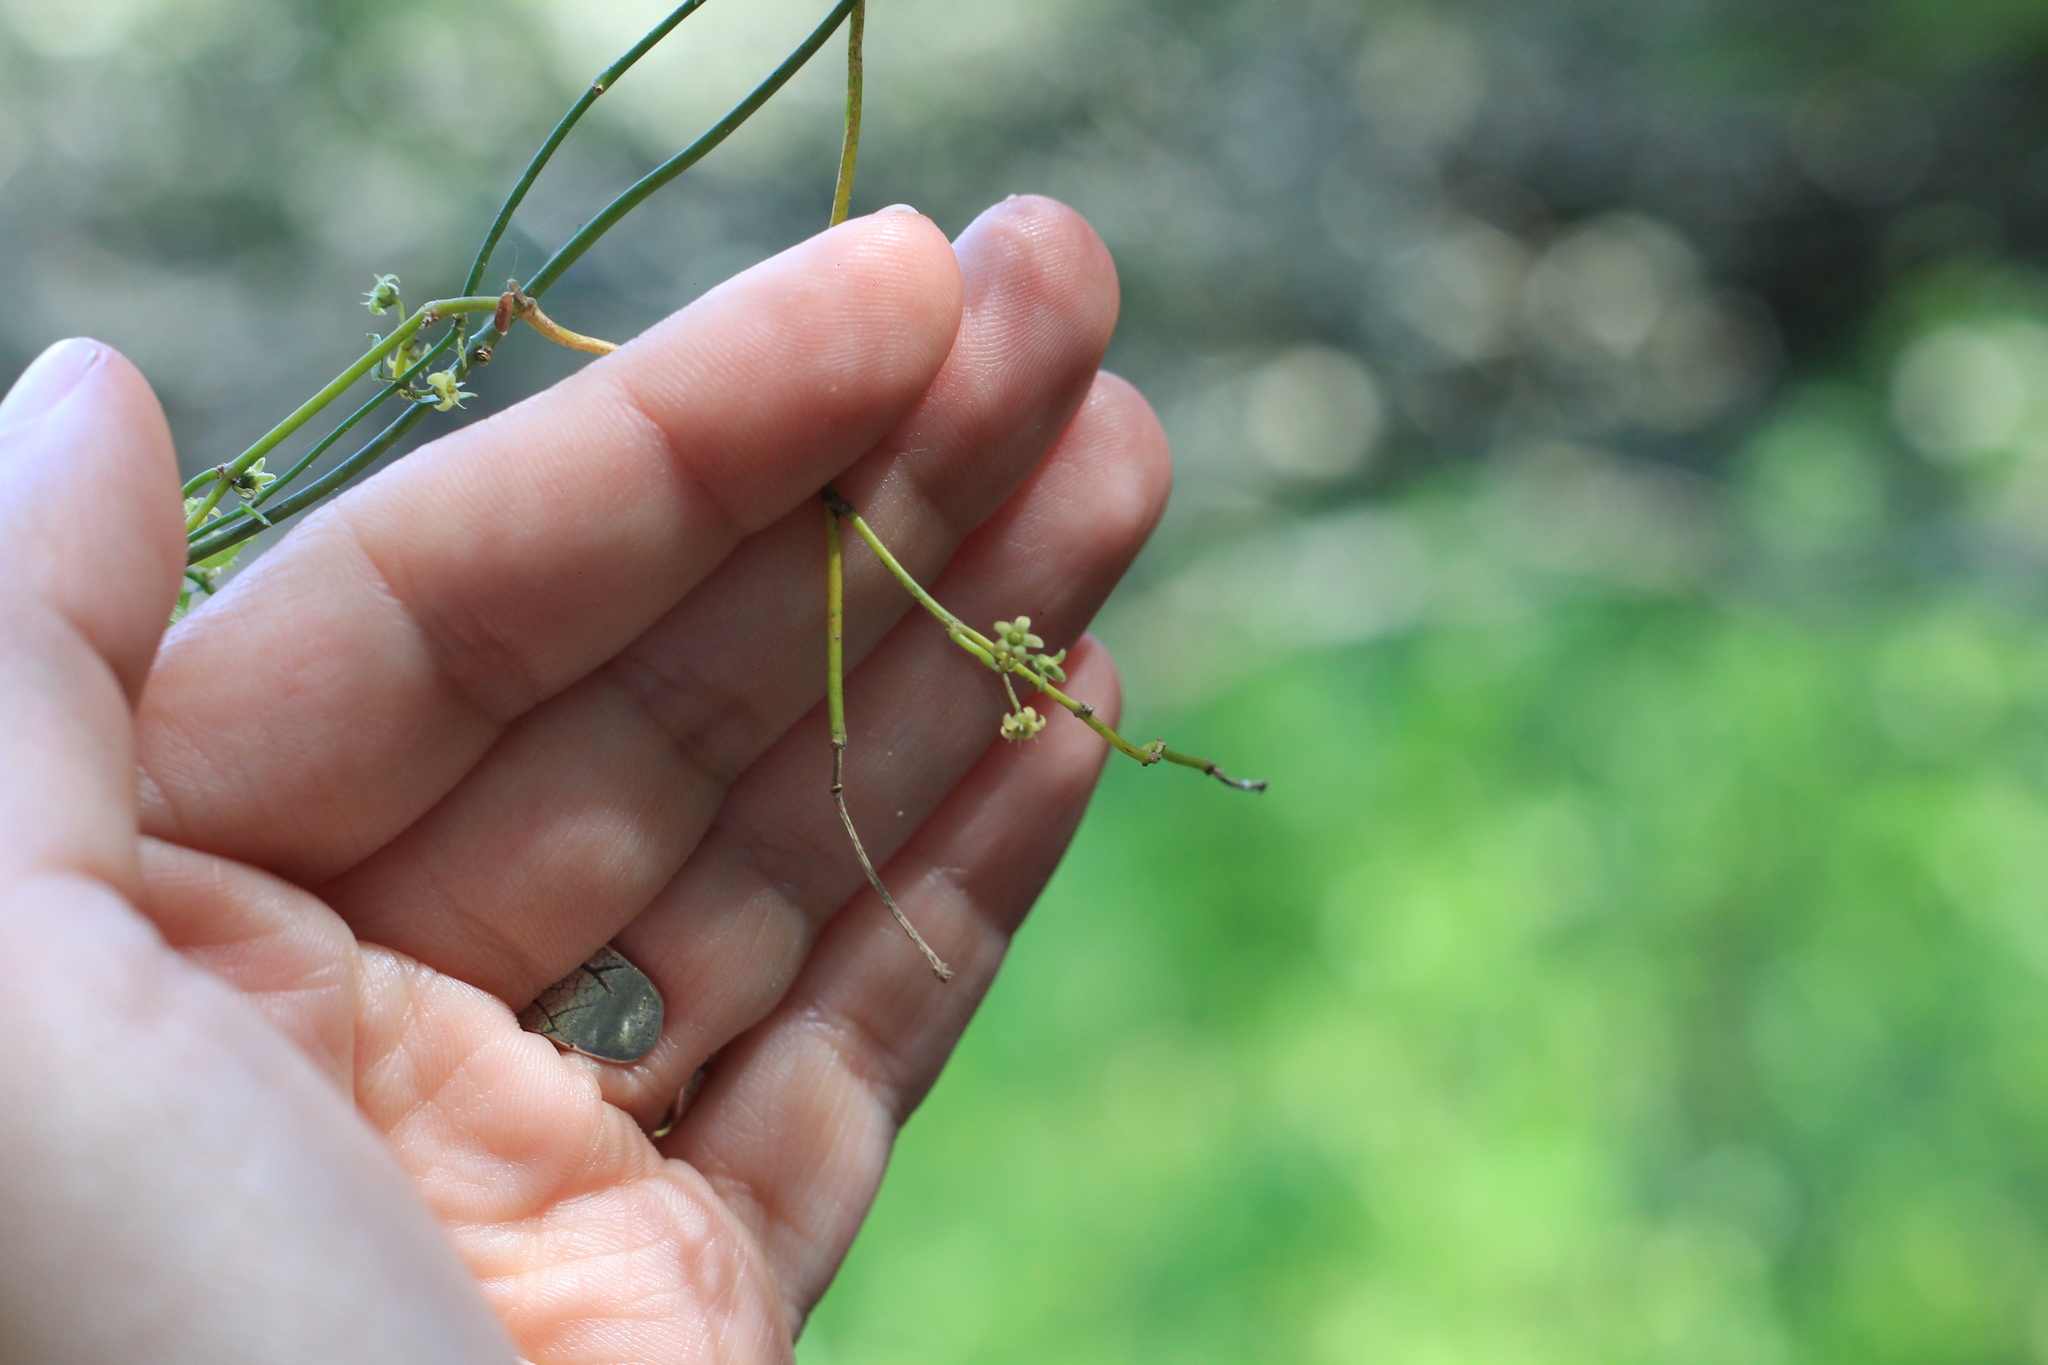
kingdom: Plantae
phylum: Tracheophyta
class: Magnoliopsida
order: Gentianales
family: Apocynaceae
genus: Orthosia
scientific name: Orthosia virgata
